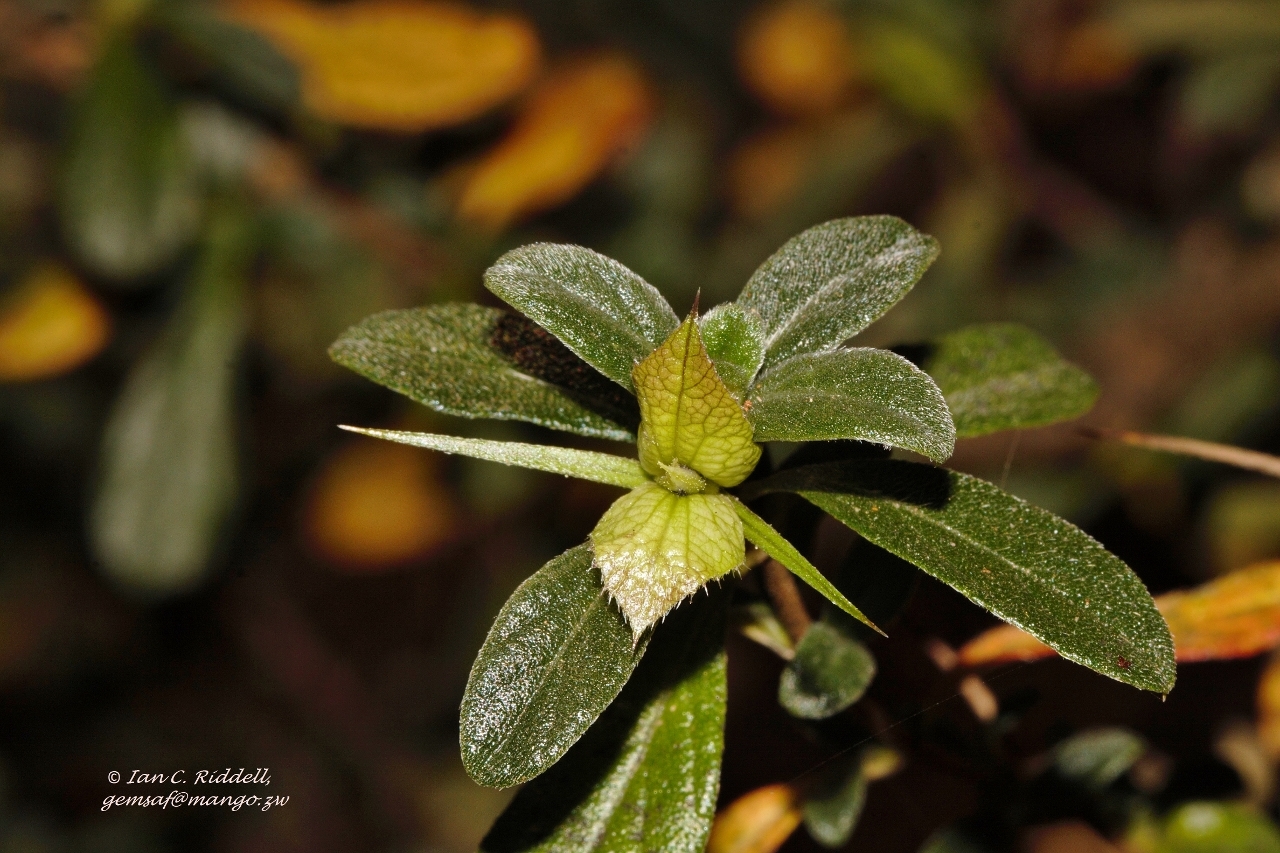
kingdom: Plantae
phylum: Tracheophyta
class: Magnoliopsida
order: Lamiales
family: Acanthaceae
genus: Barleria
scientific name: Barleria crassa
